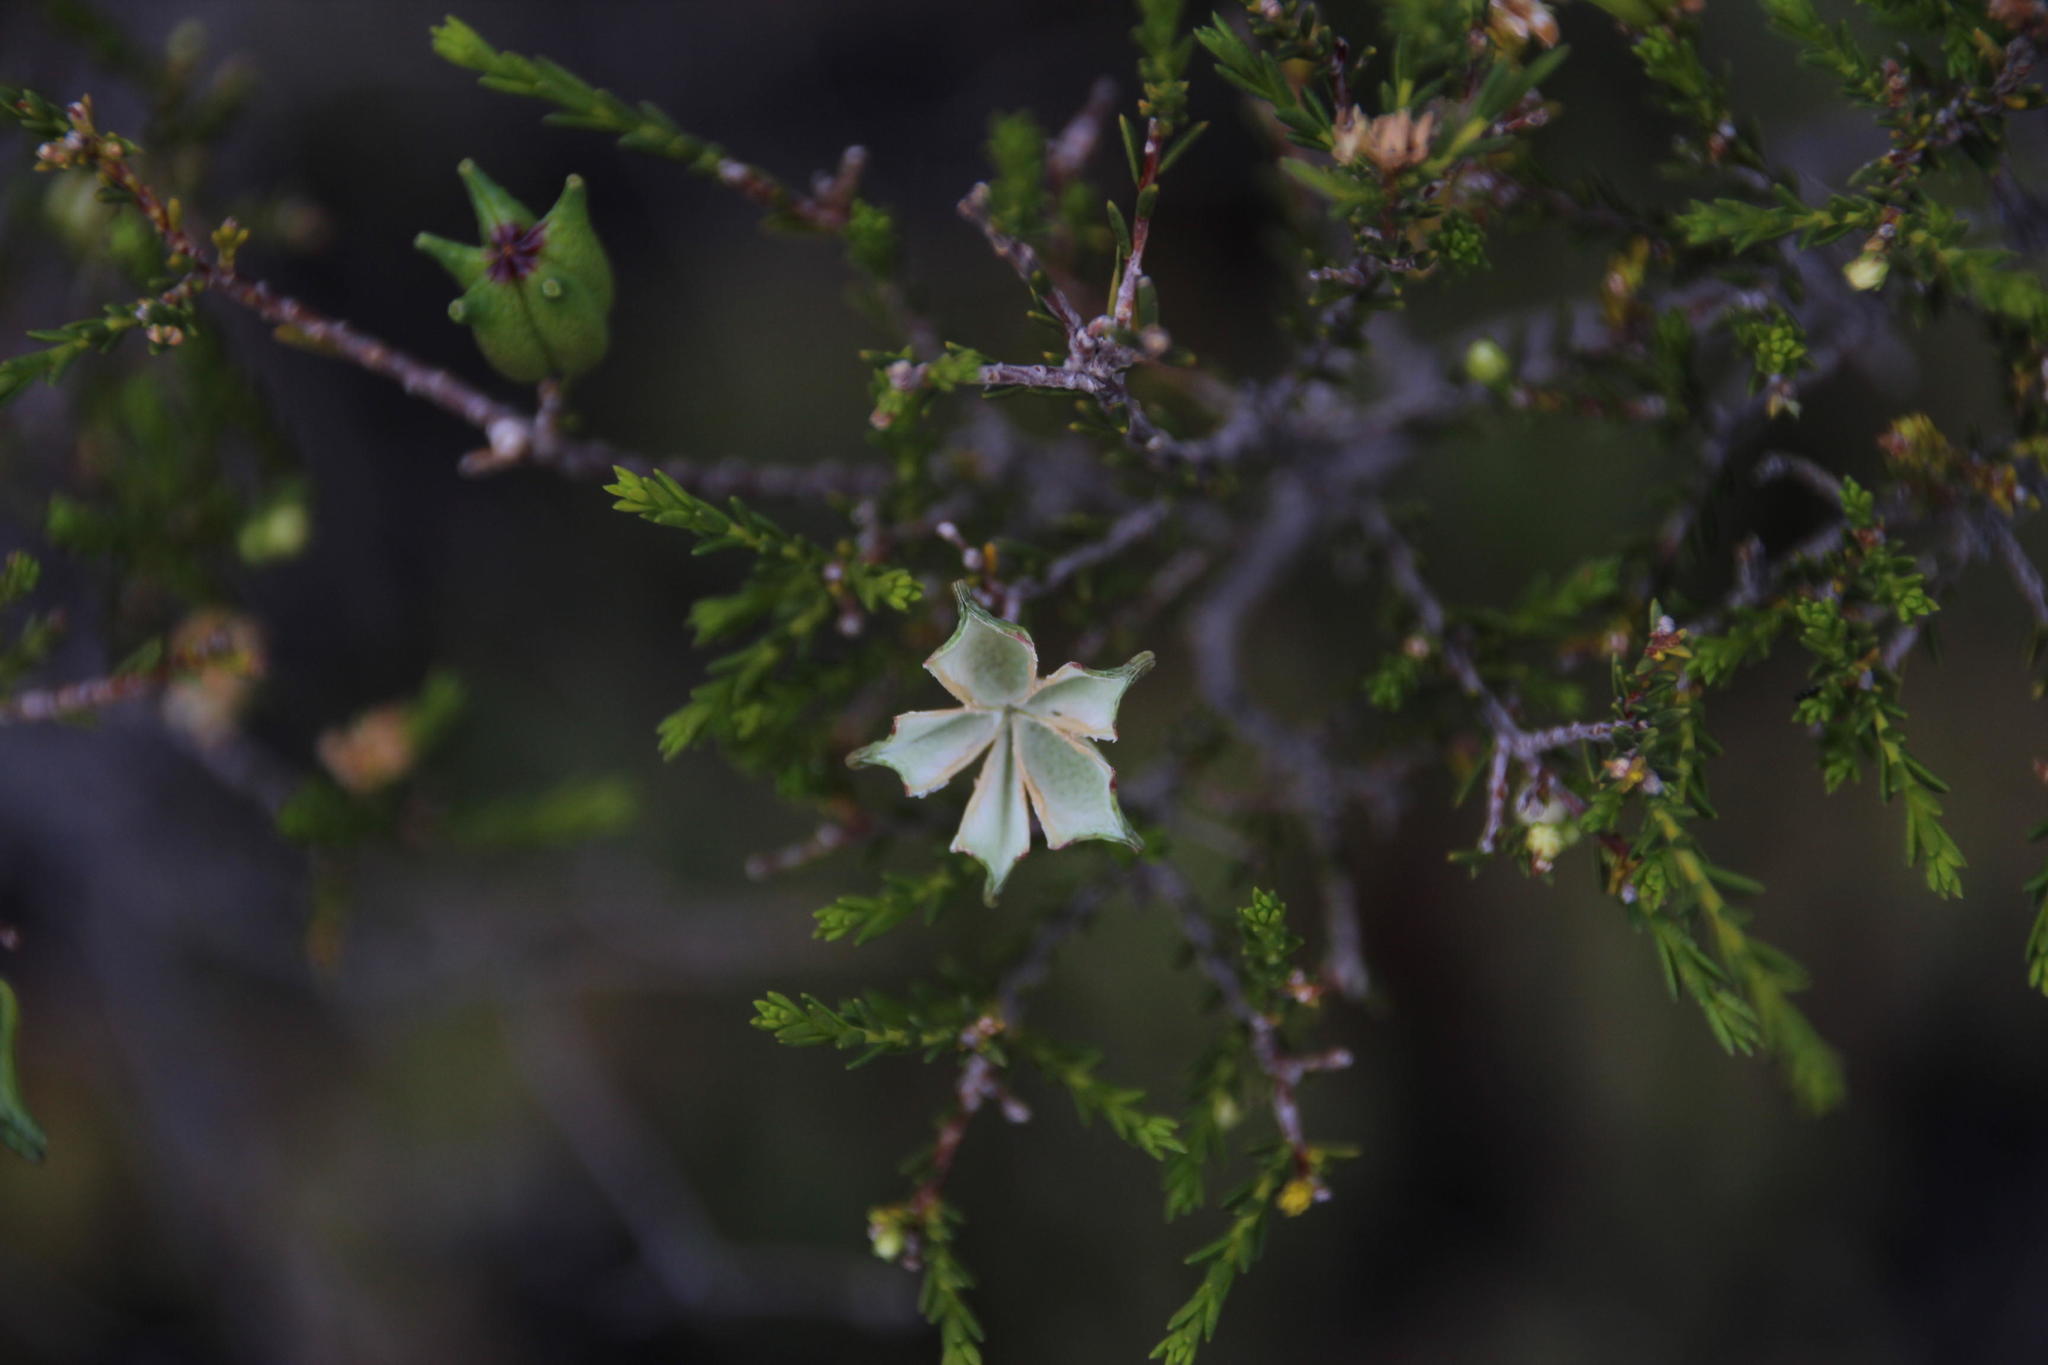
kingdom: Plantae
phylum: Tracheophyta
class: Magnoliopsida
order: Sapindales
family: Rutaceae
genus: Diosma
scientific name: Diosma ramosissima
